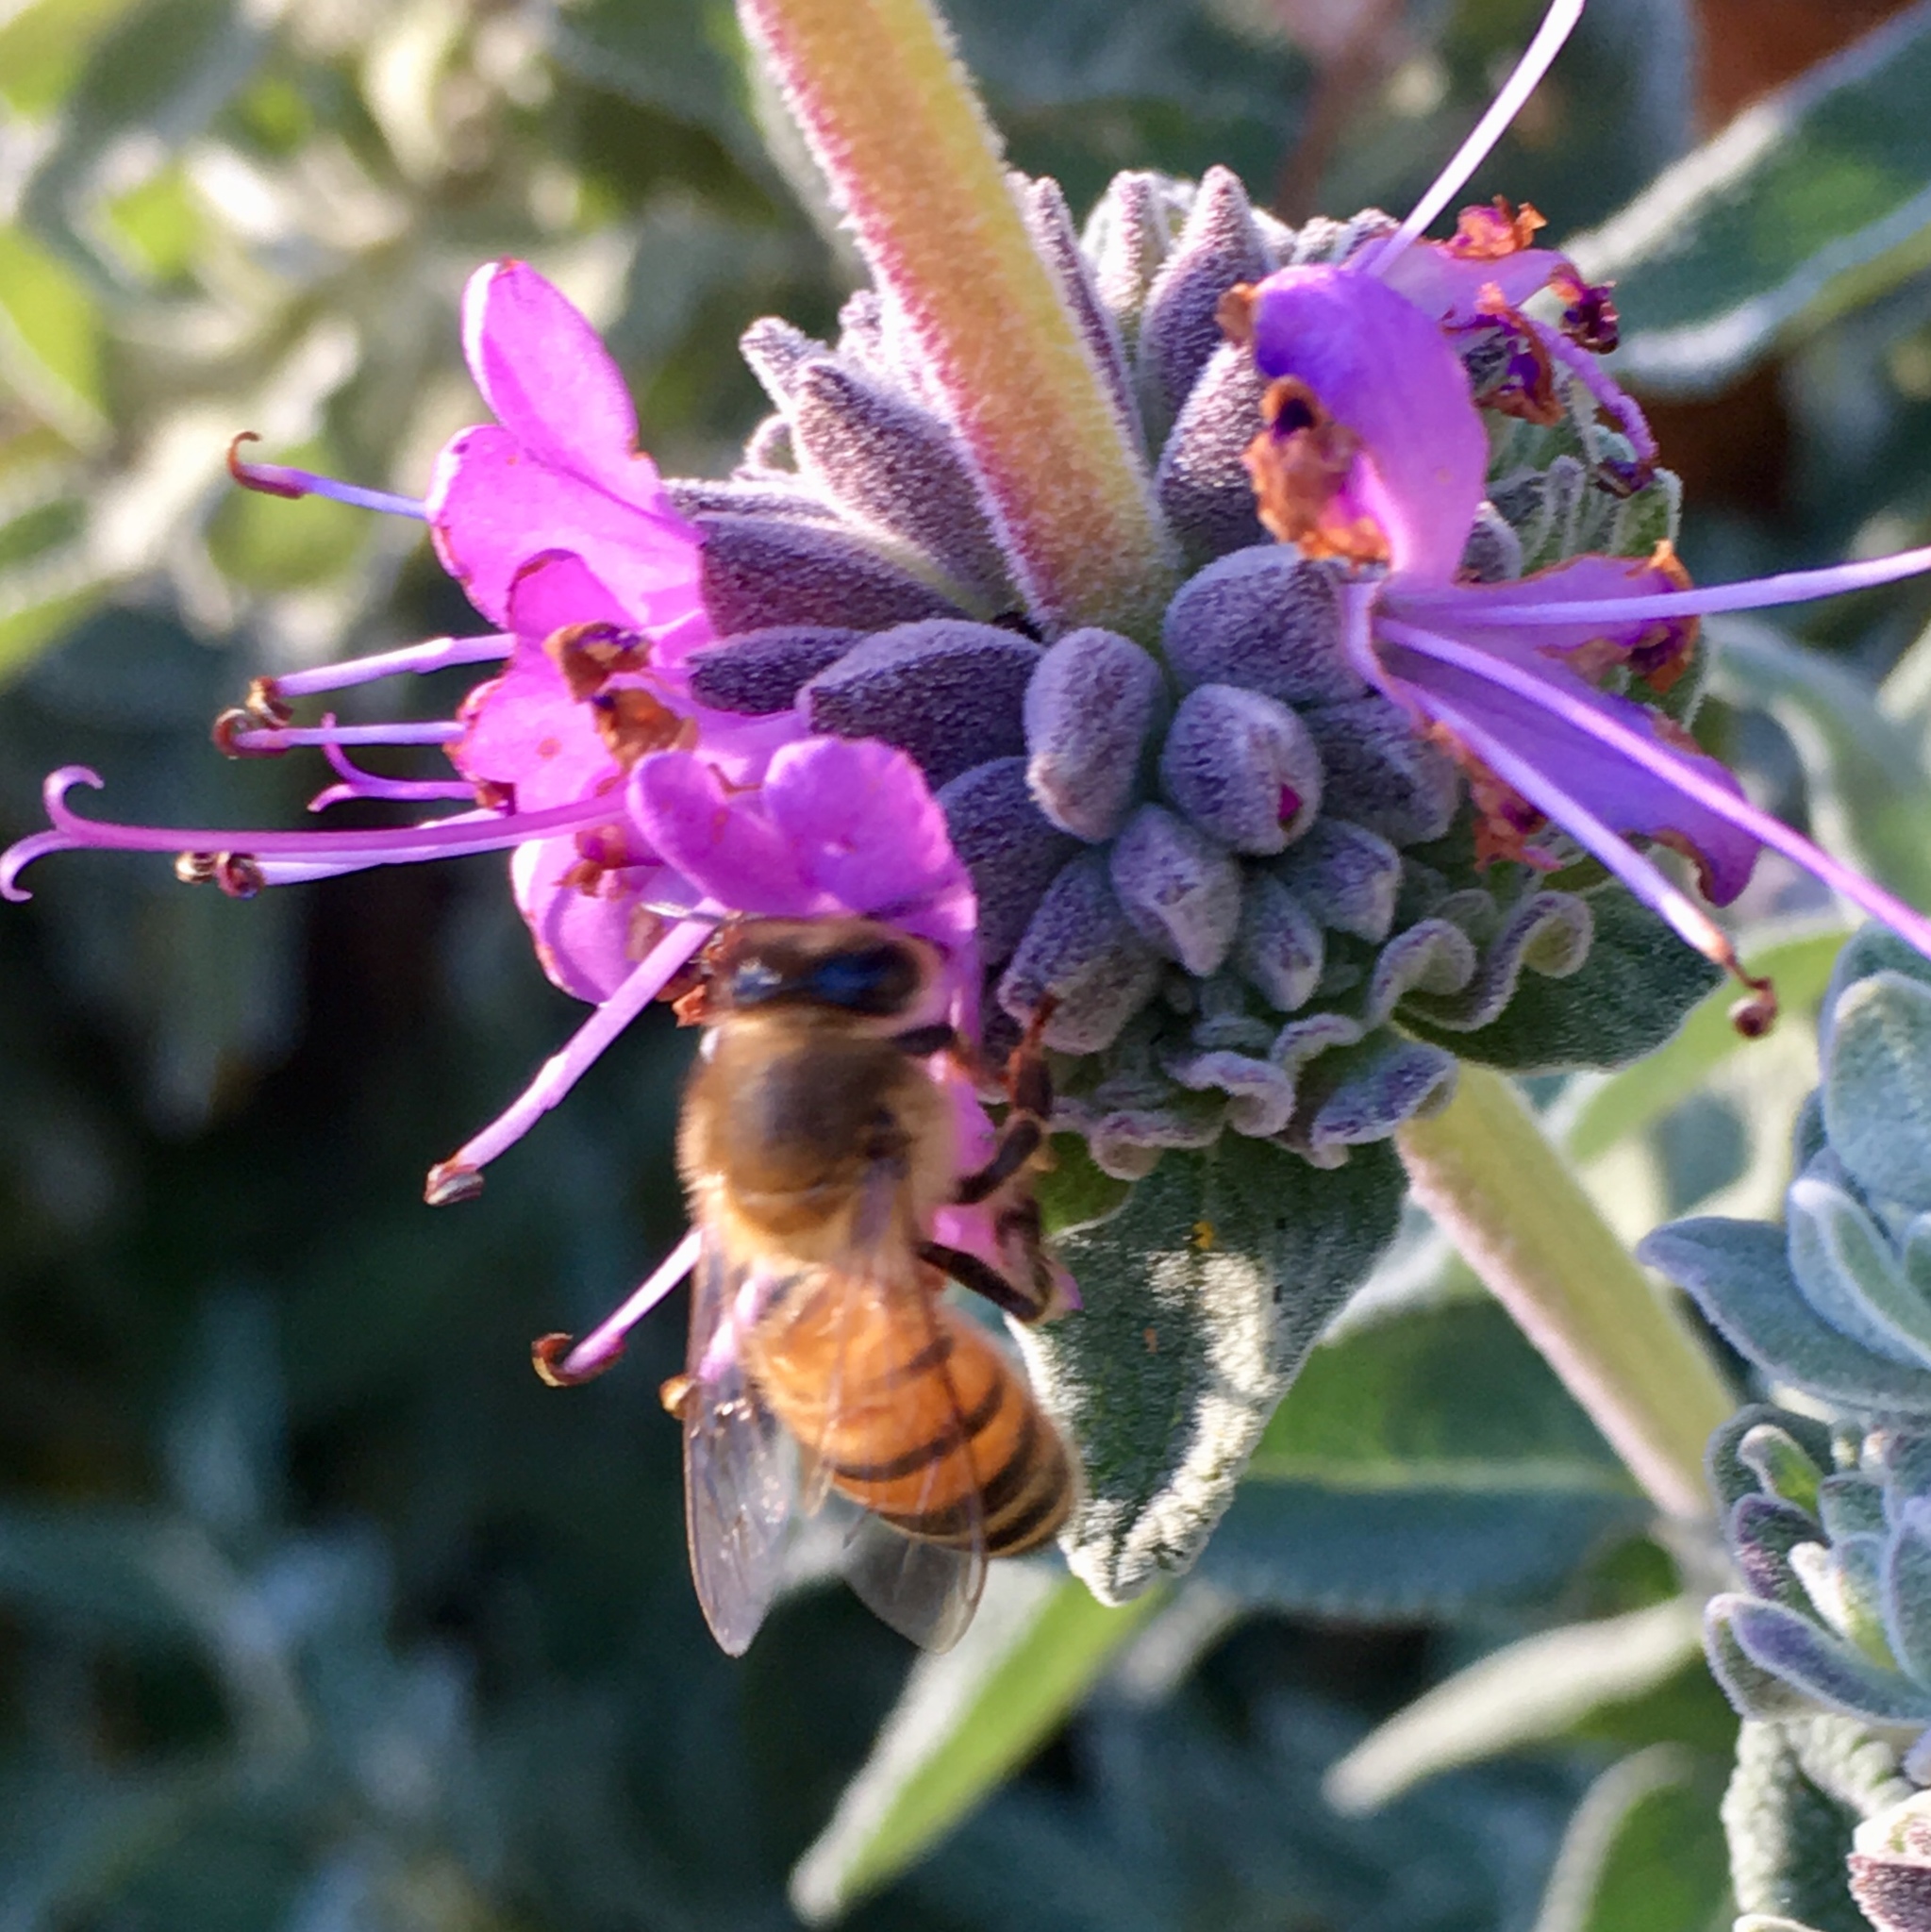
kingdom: Animalia
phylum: Arthropoda
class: Insecta
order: Hymenoptera
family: Apidae
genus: Apis
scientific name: Apis mellifera
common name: Honey bee
